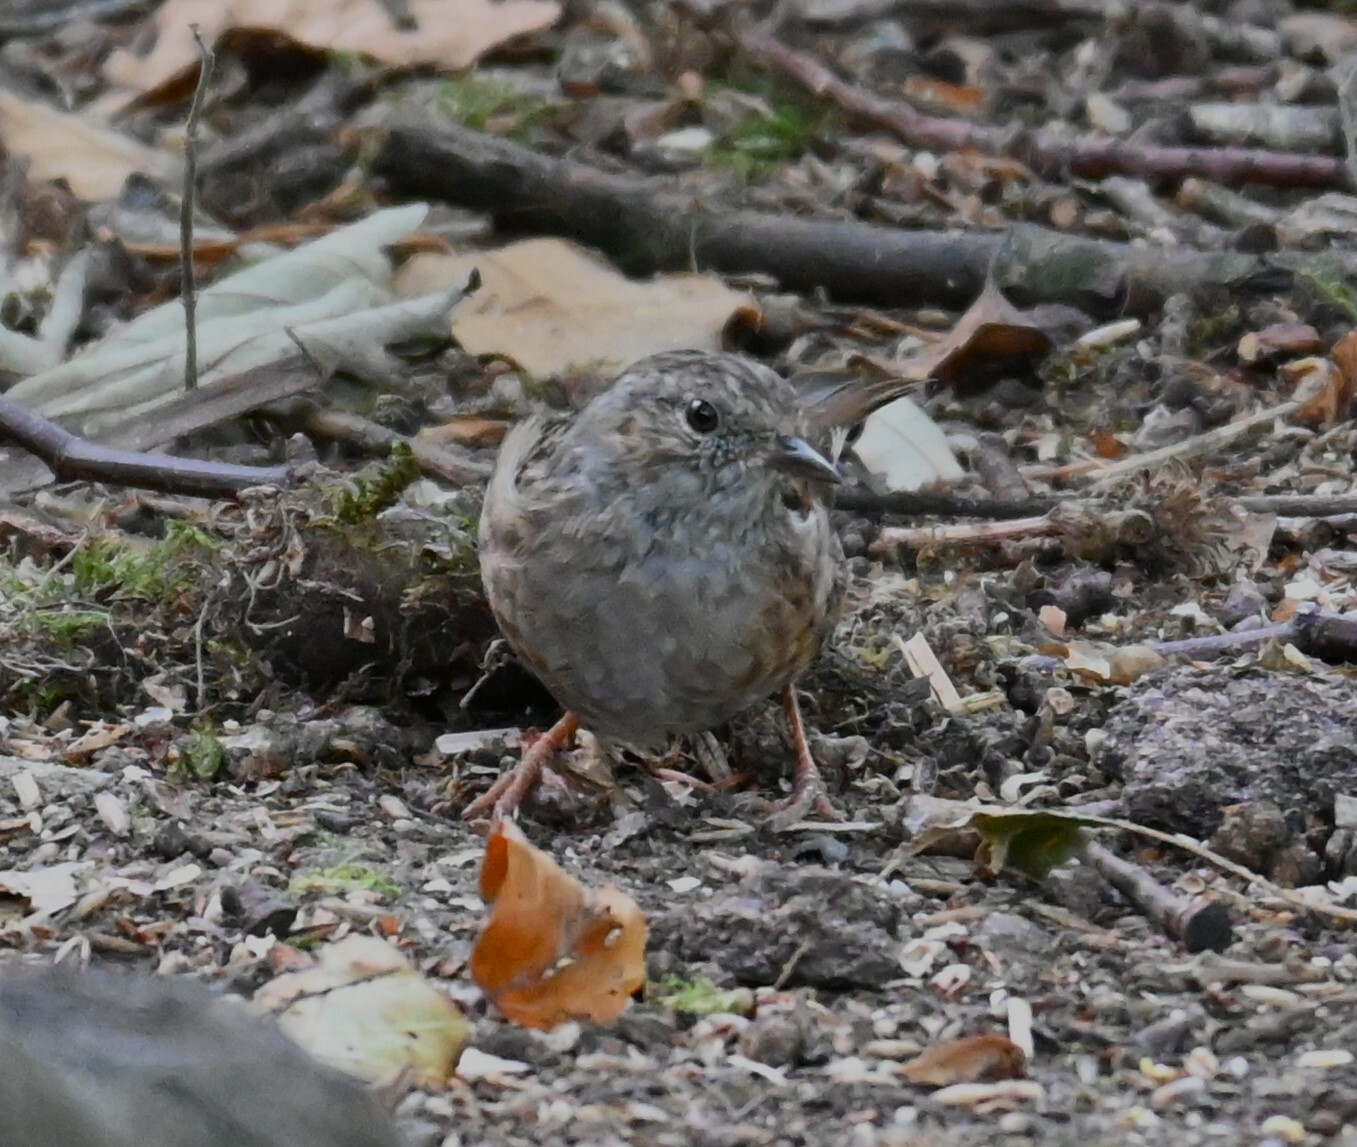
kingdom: Animalia
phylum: Chordata
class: Aves
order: Passeriformes
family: Prunellidae
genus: Prunella
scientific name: Prunella modularis
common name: Dunnock
